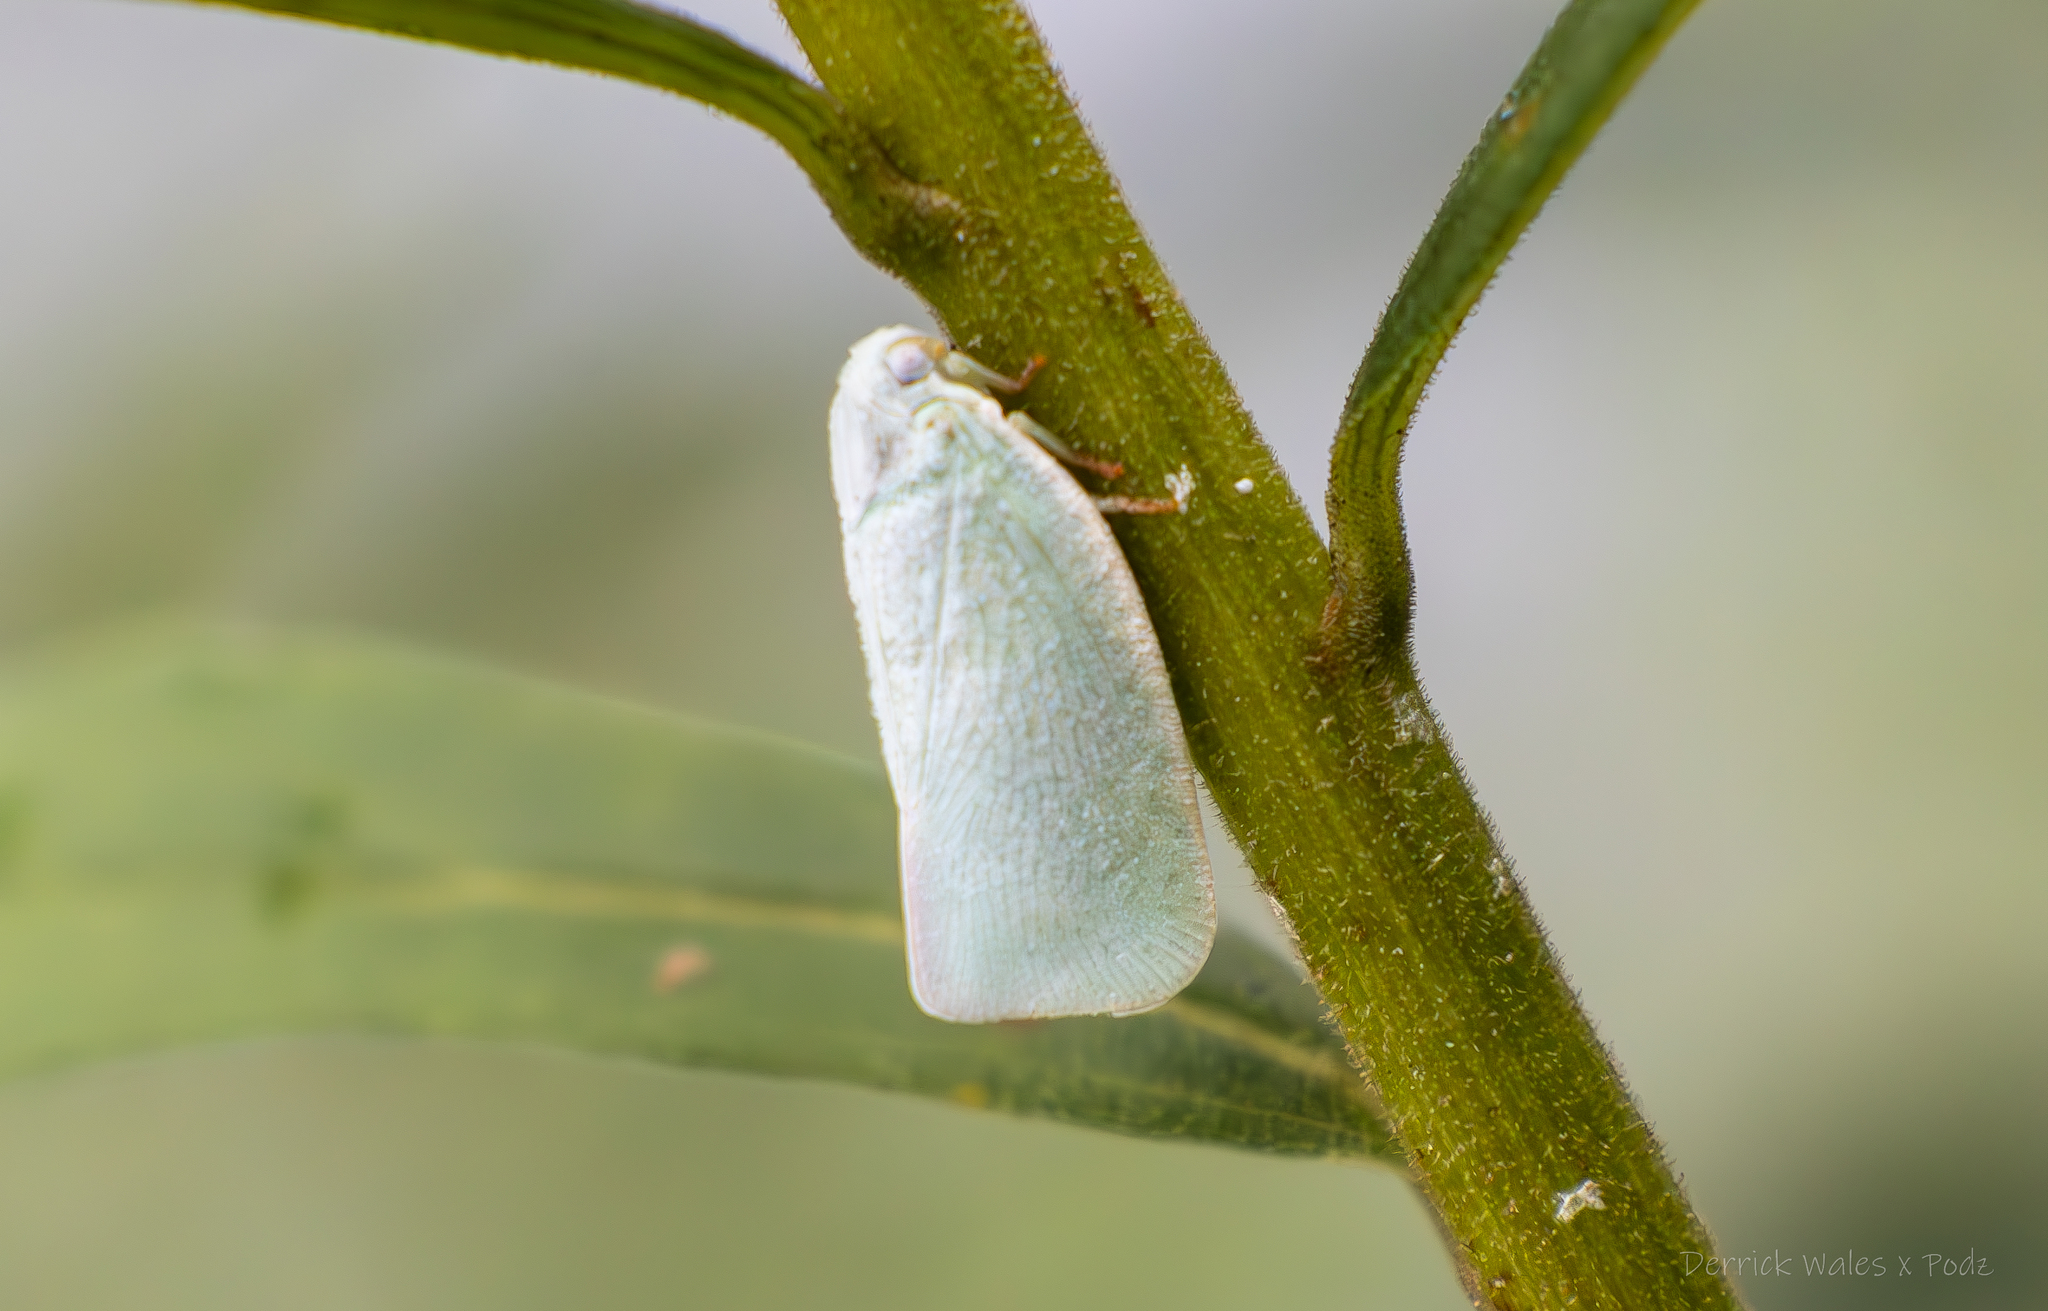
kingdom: Animalia
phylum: Arthropoda
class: Insecta
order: Hemiptera
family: Flatidae
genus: Flatormenis
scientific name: Flatormenis proxima
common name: Northern flatid planthopper
